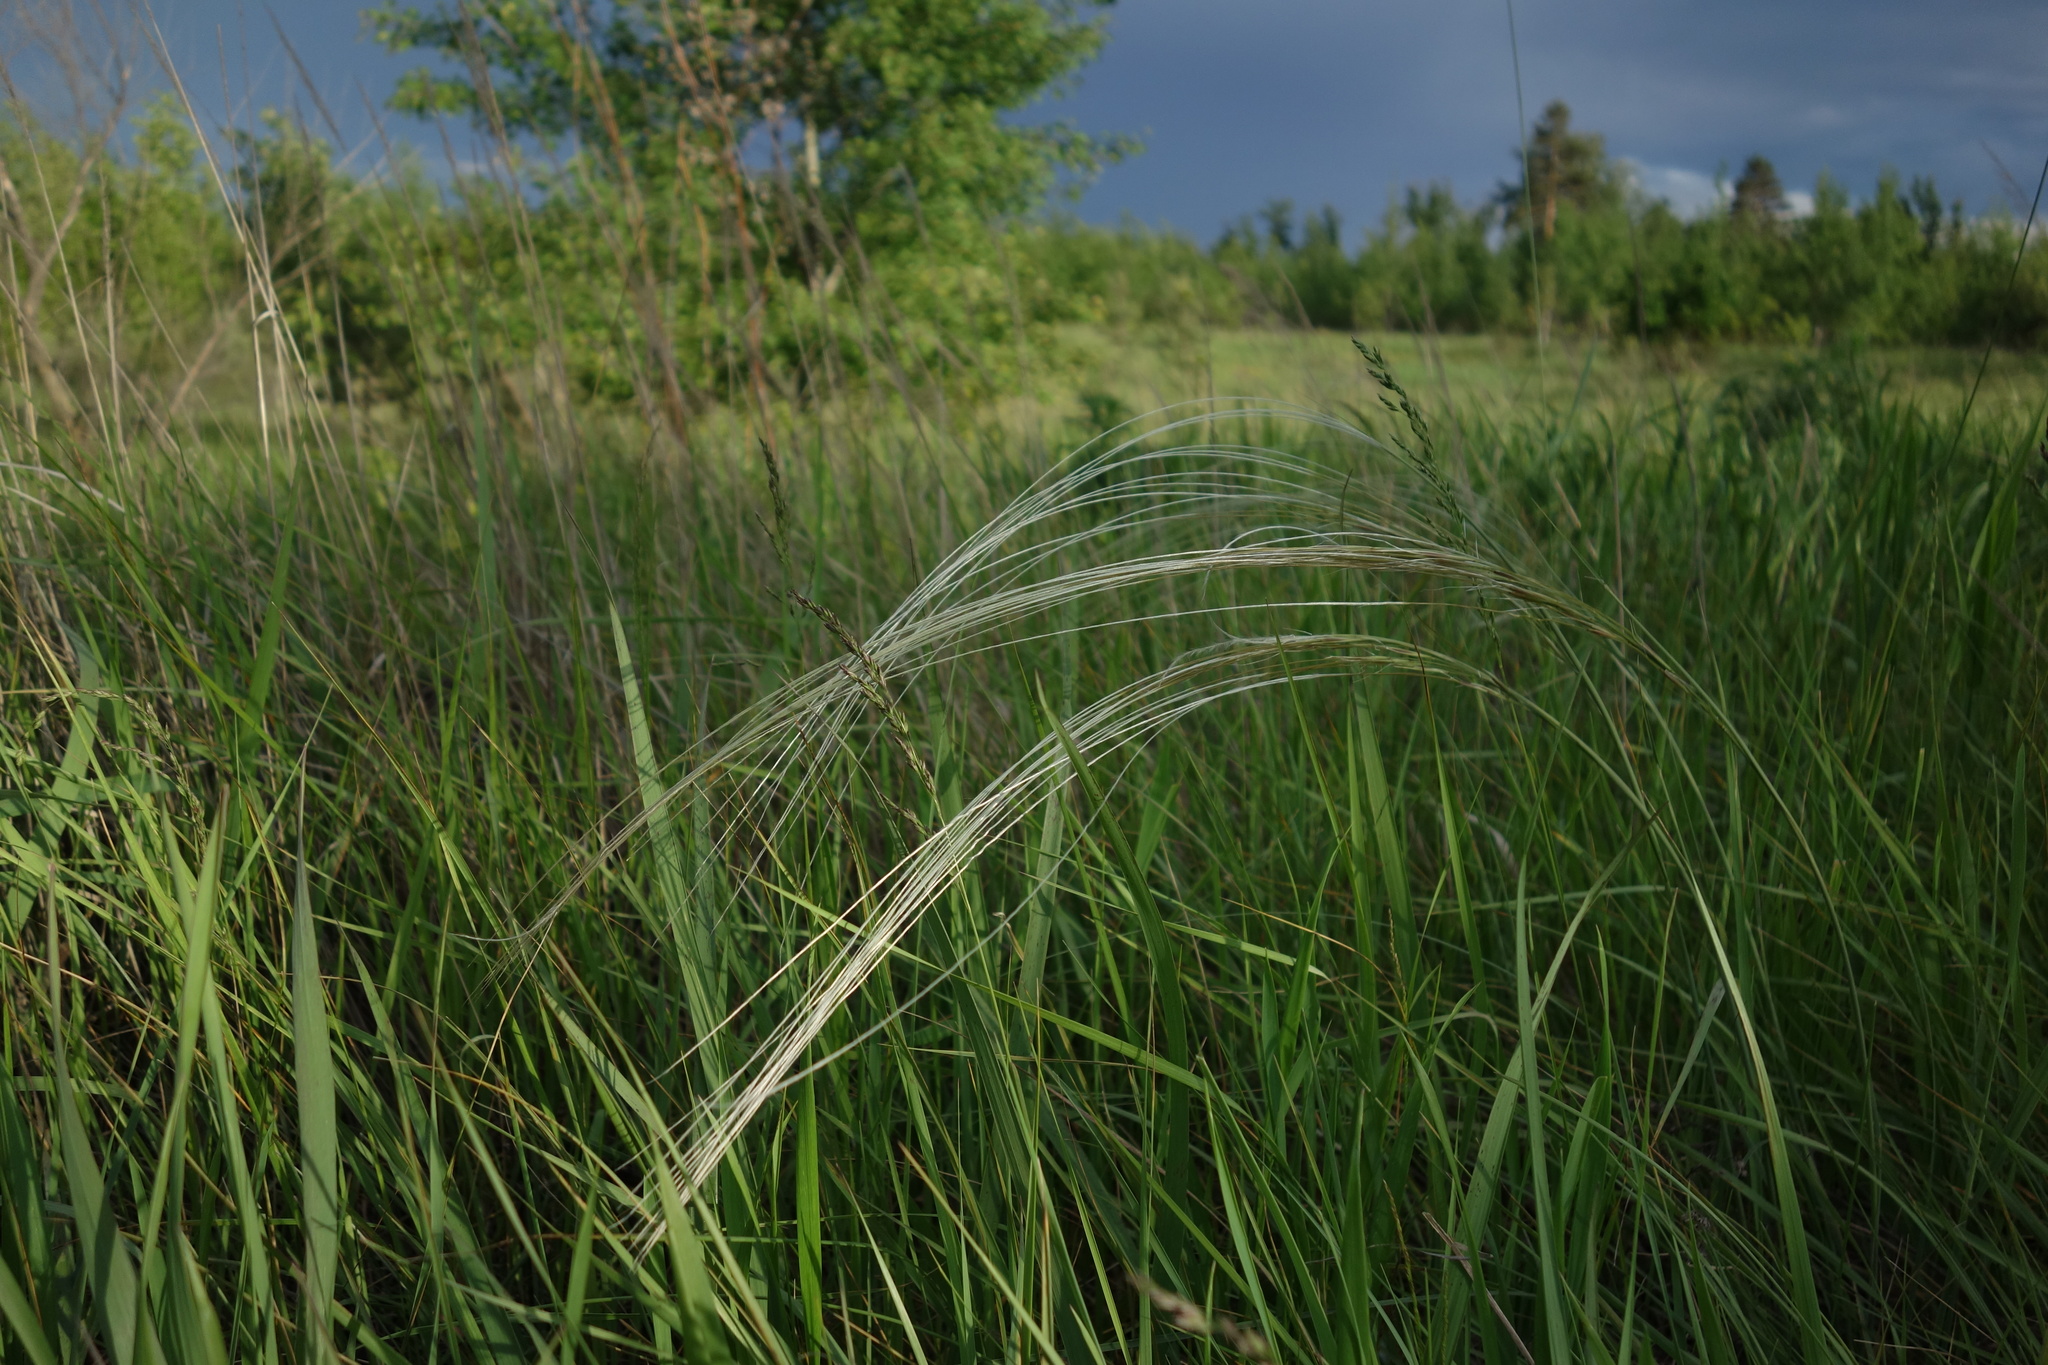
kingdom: Plantae
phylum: Tracheophyta
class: Liliopsida
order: Poales
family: Poaceae
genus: Stipa
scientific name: Stipa pennata
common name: European feather grass
